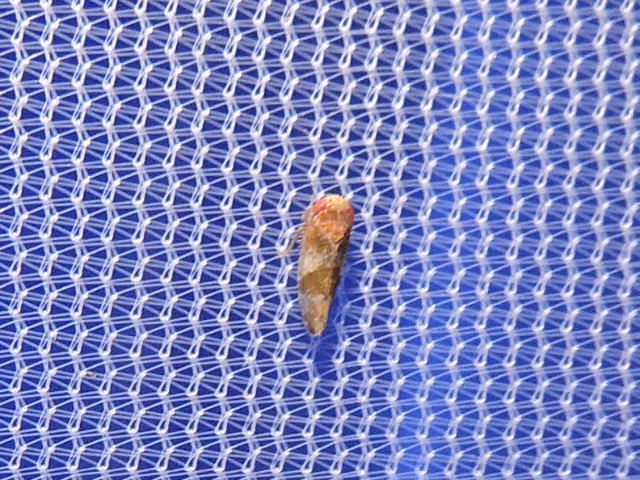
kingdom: Animalia
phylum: Arthropoda
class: Insecta
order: Hemiptera
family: Cicadellidae
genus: Norvellina
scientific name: Norvellina helenae
